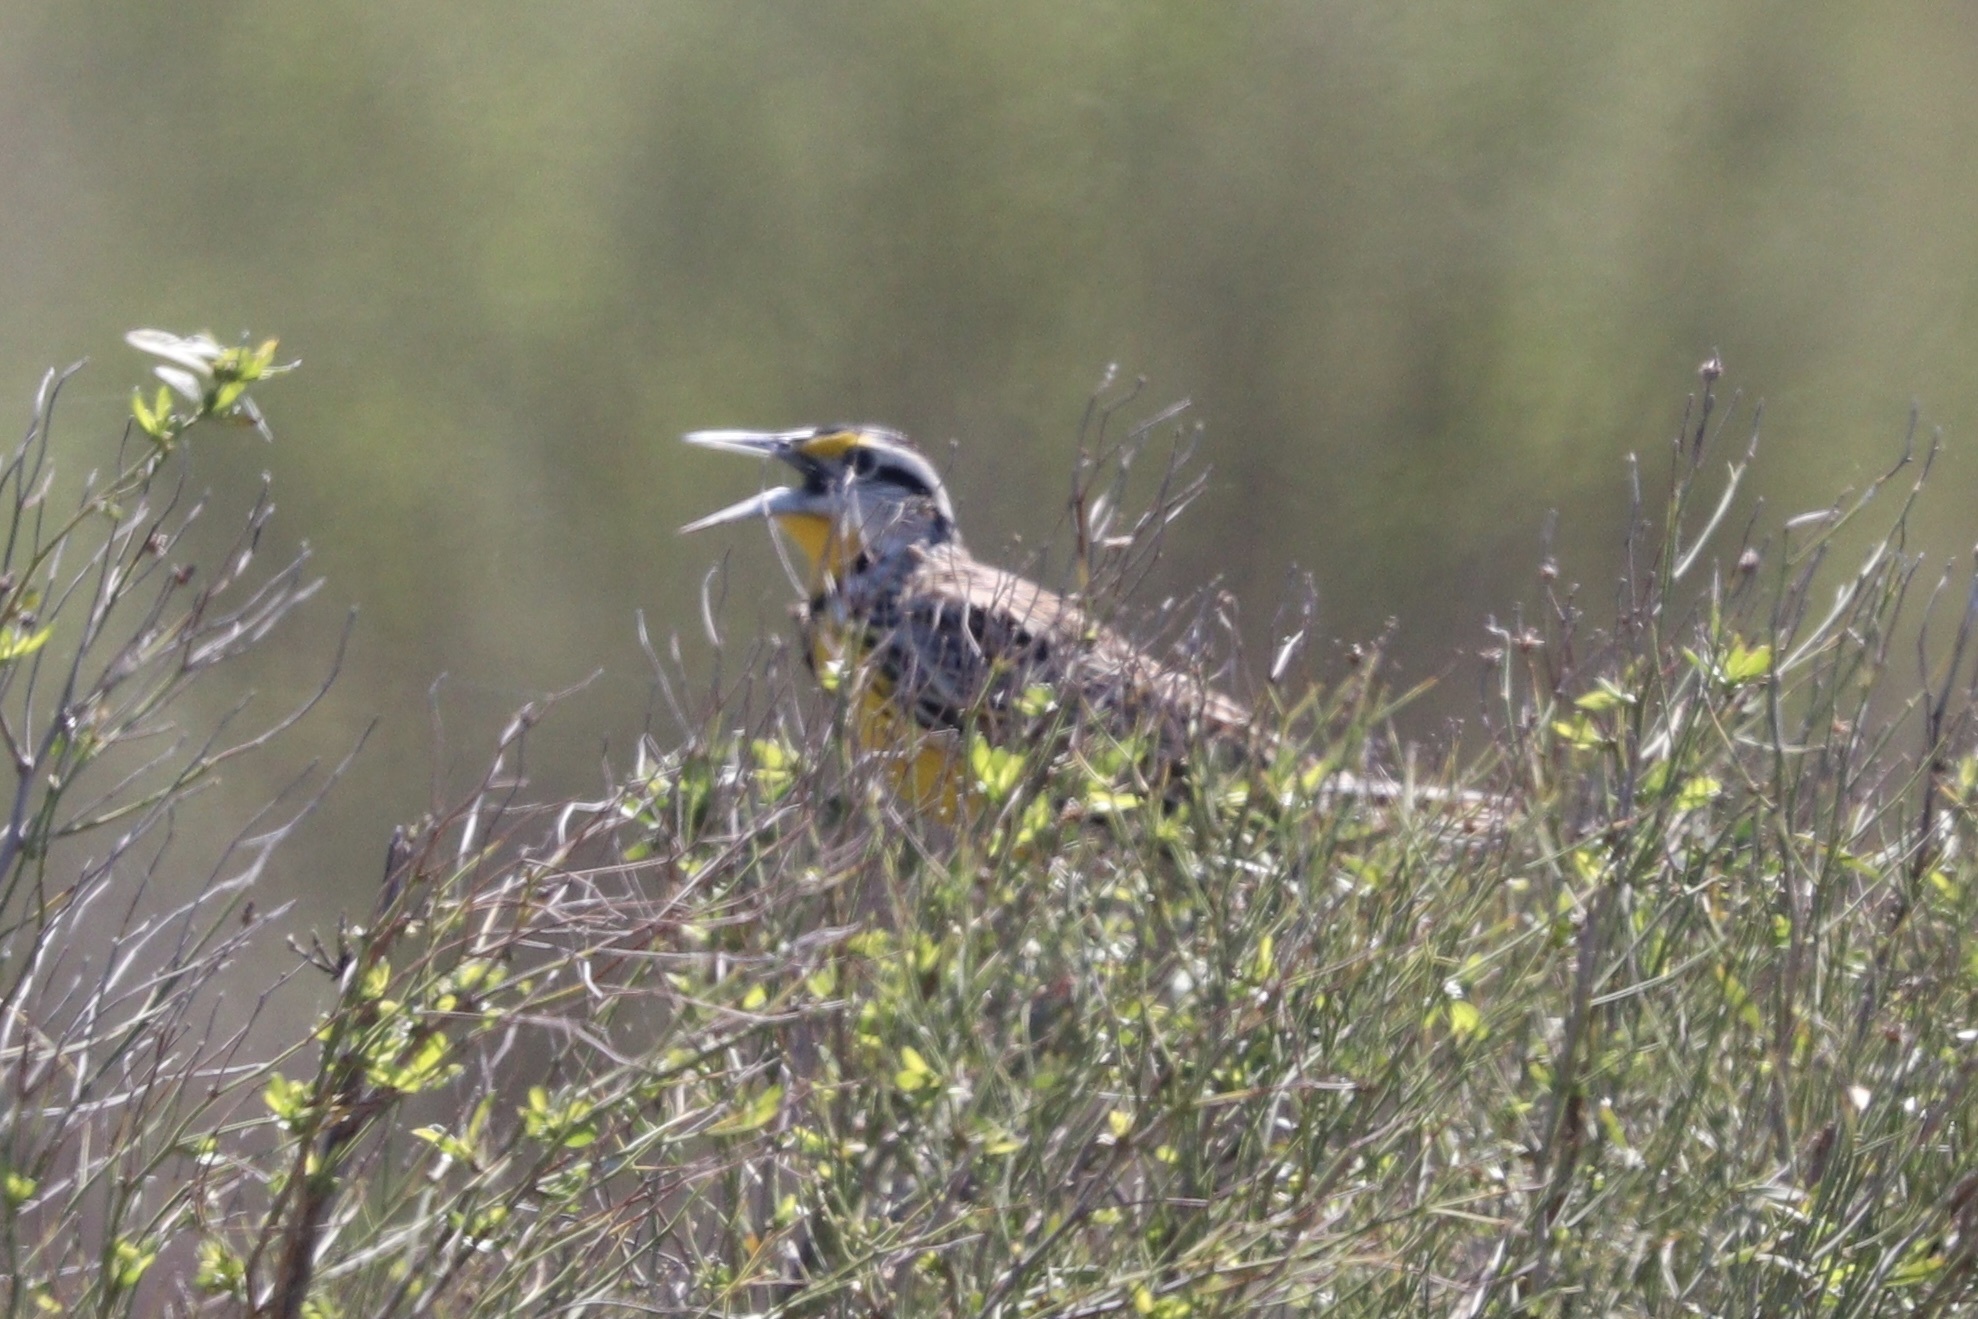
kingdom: Animalia
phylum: Chordata
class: Aves
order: Passeriformes
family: Icteridae
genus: Sturnella
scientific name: Sturnella neglecta
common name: Western meadowlark
